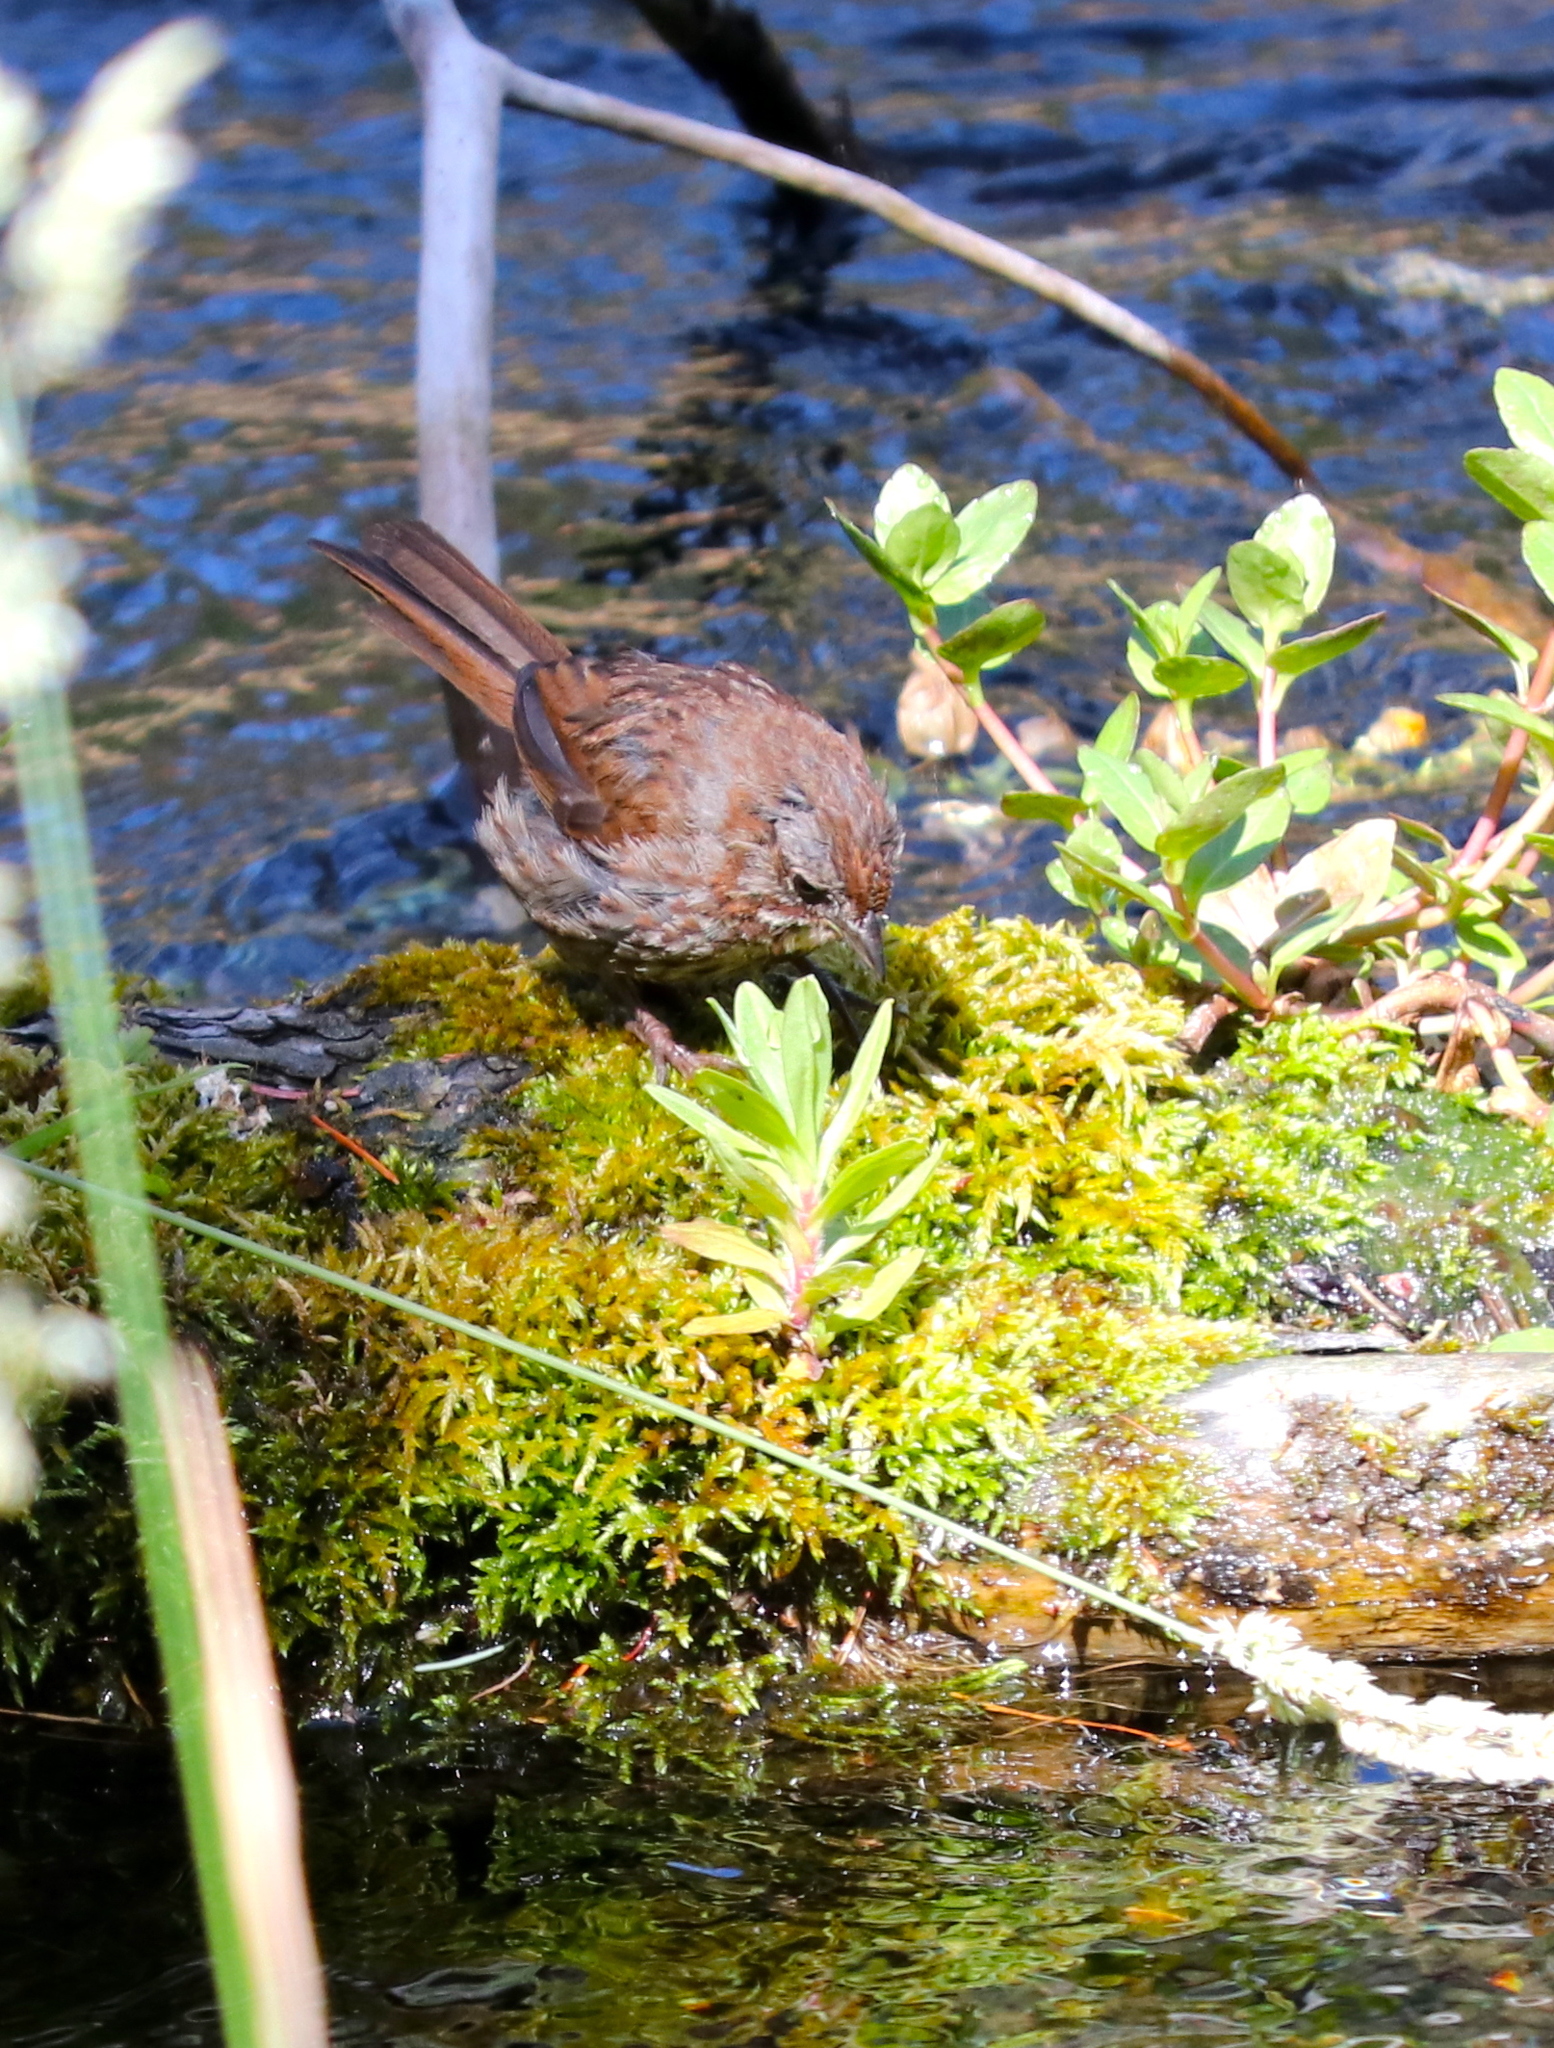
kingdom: Animalia
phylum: Chordata
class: Aves
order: Passeriformes
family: Passerellidae
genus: Melospiza
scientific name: Melospiza melodia
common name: Song sparrow
